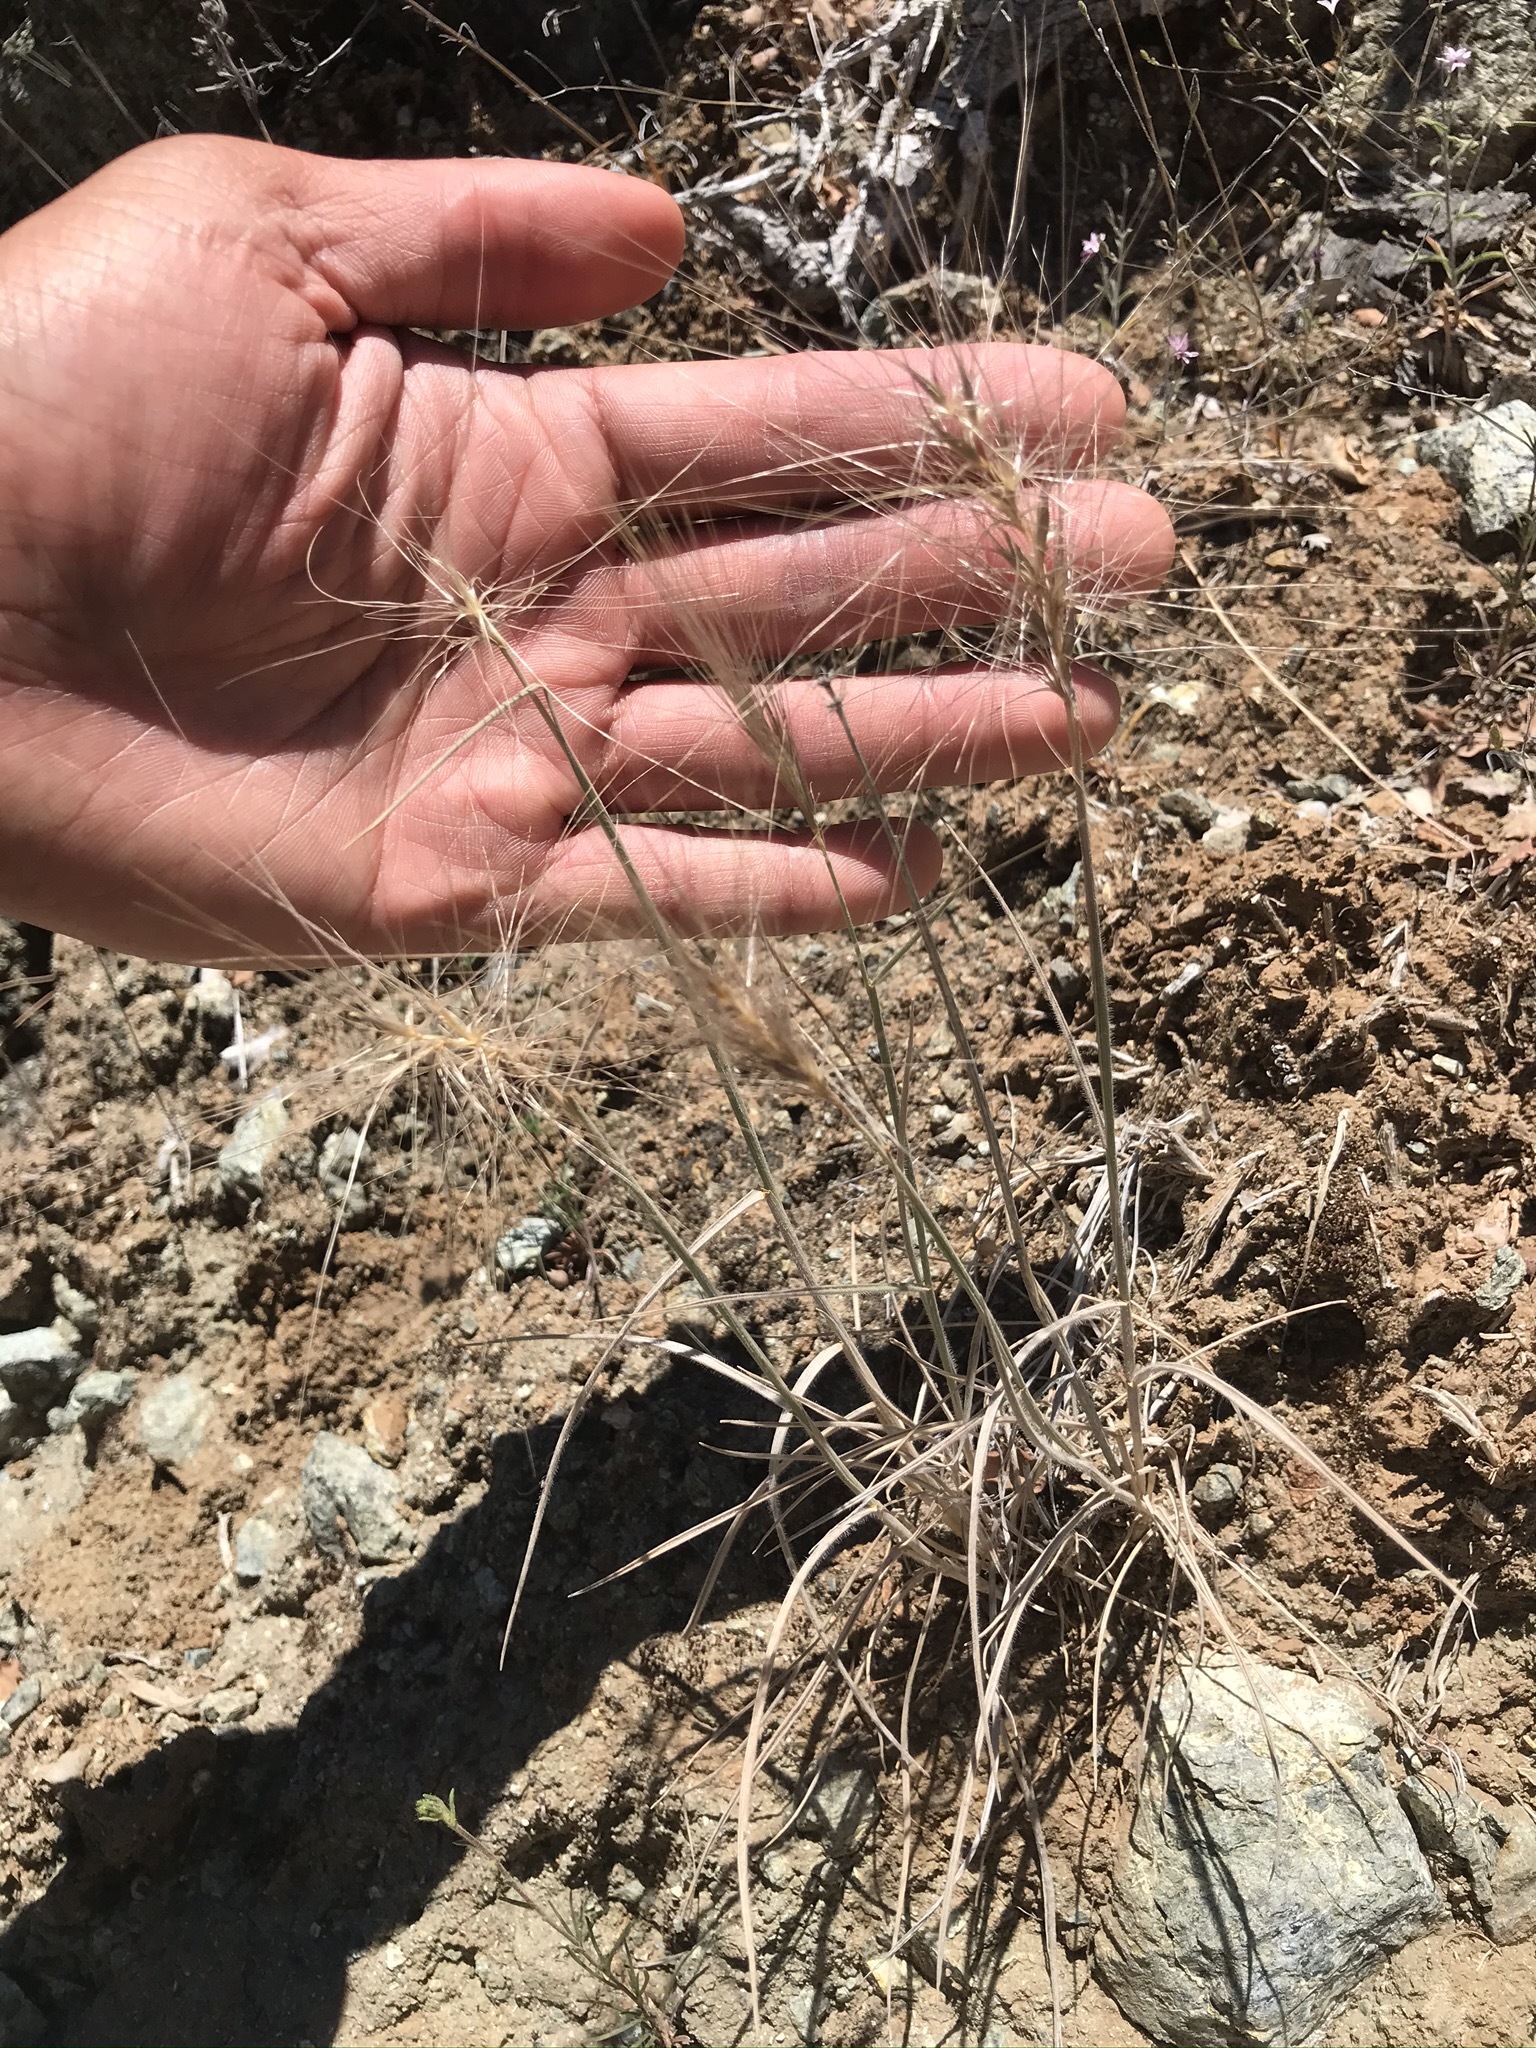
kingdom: Plantae
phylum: Tracheophyta
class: Liliopsida
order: Poales
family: Poaceae
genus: Elymus
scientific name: Elymus multisetus
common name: Big squirreltail
